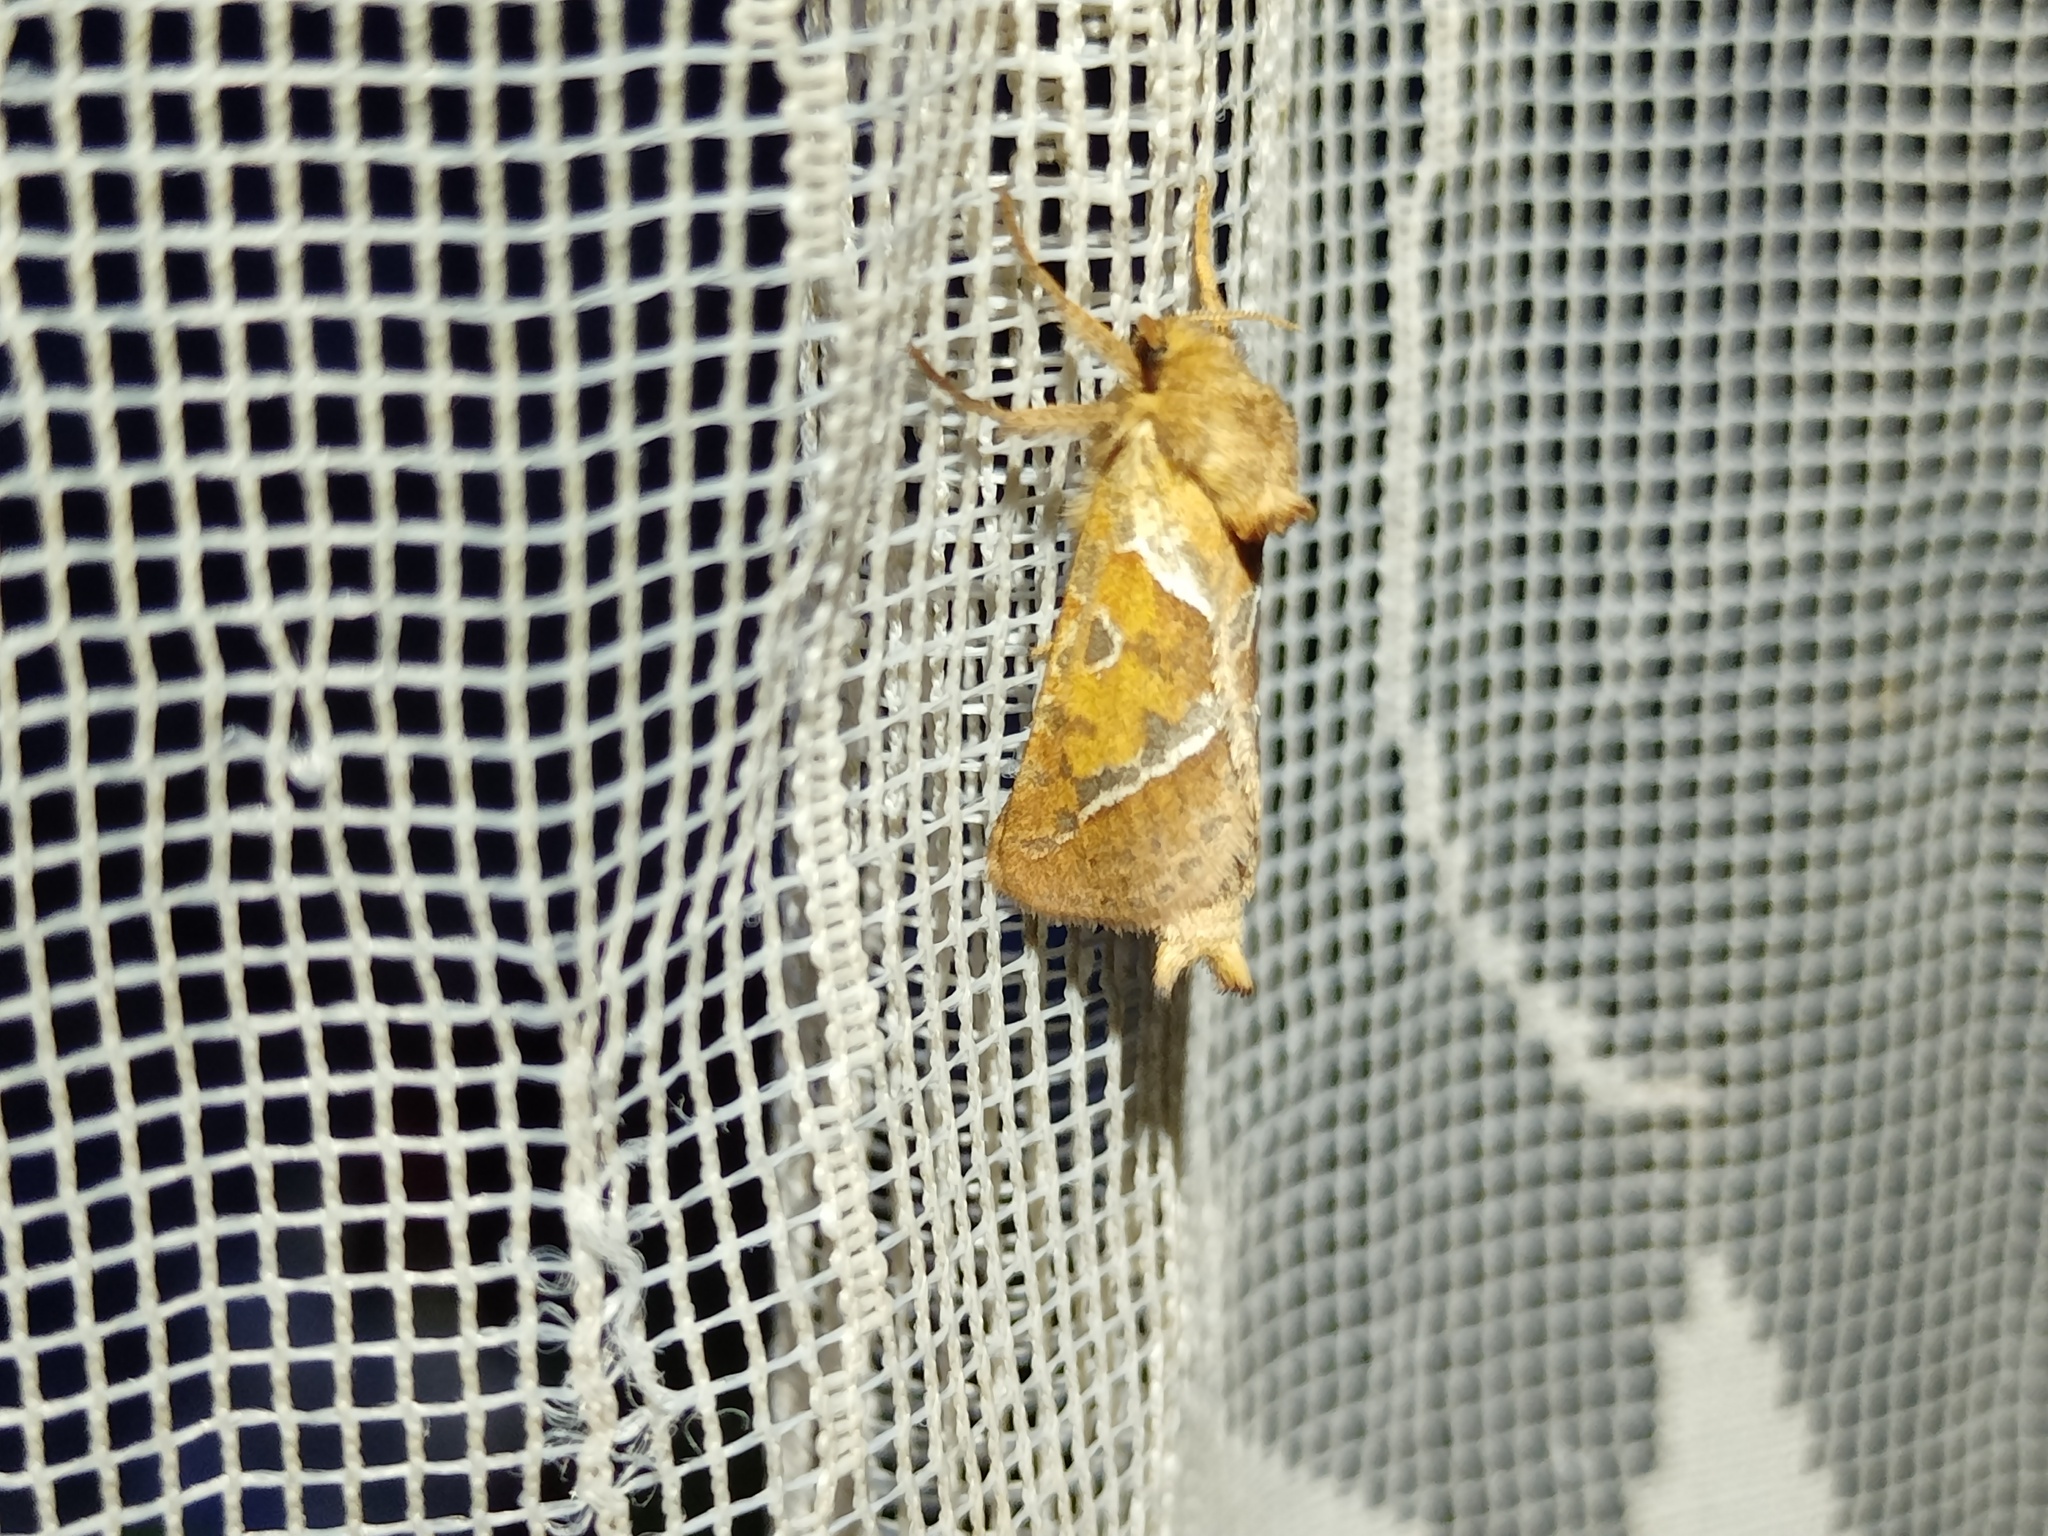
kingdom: Animalia
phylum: Arthropoda
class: Insecta
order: Lepidoptera
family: Hepialidae
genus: Triodia
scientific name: Triodia sylvina
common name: Orange swift
